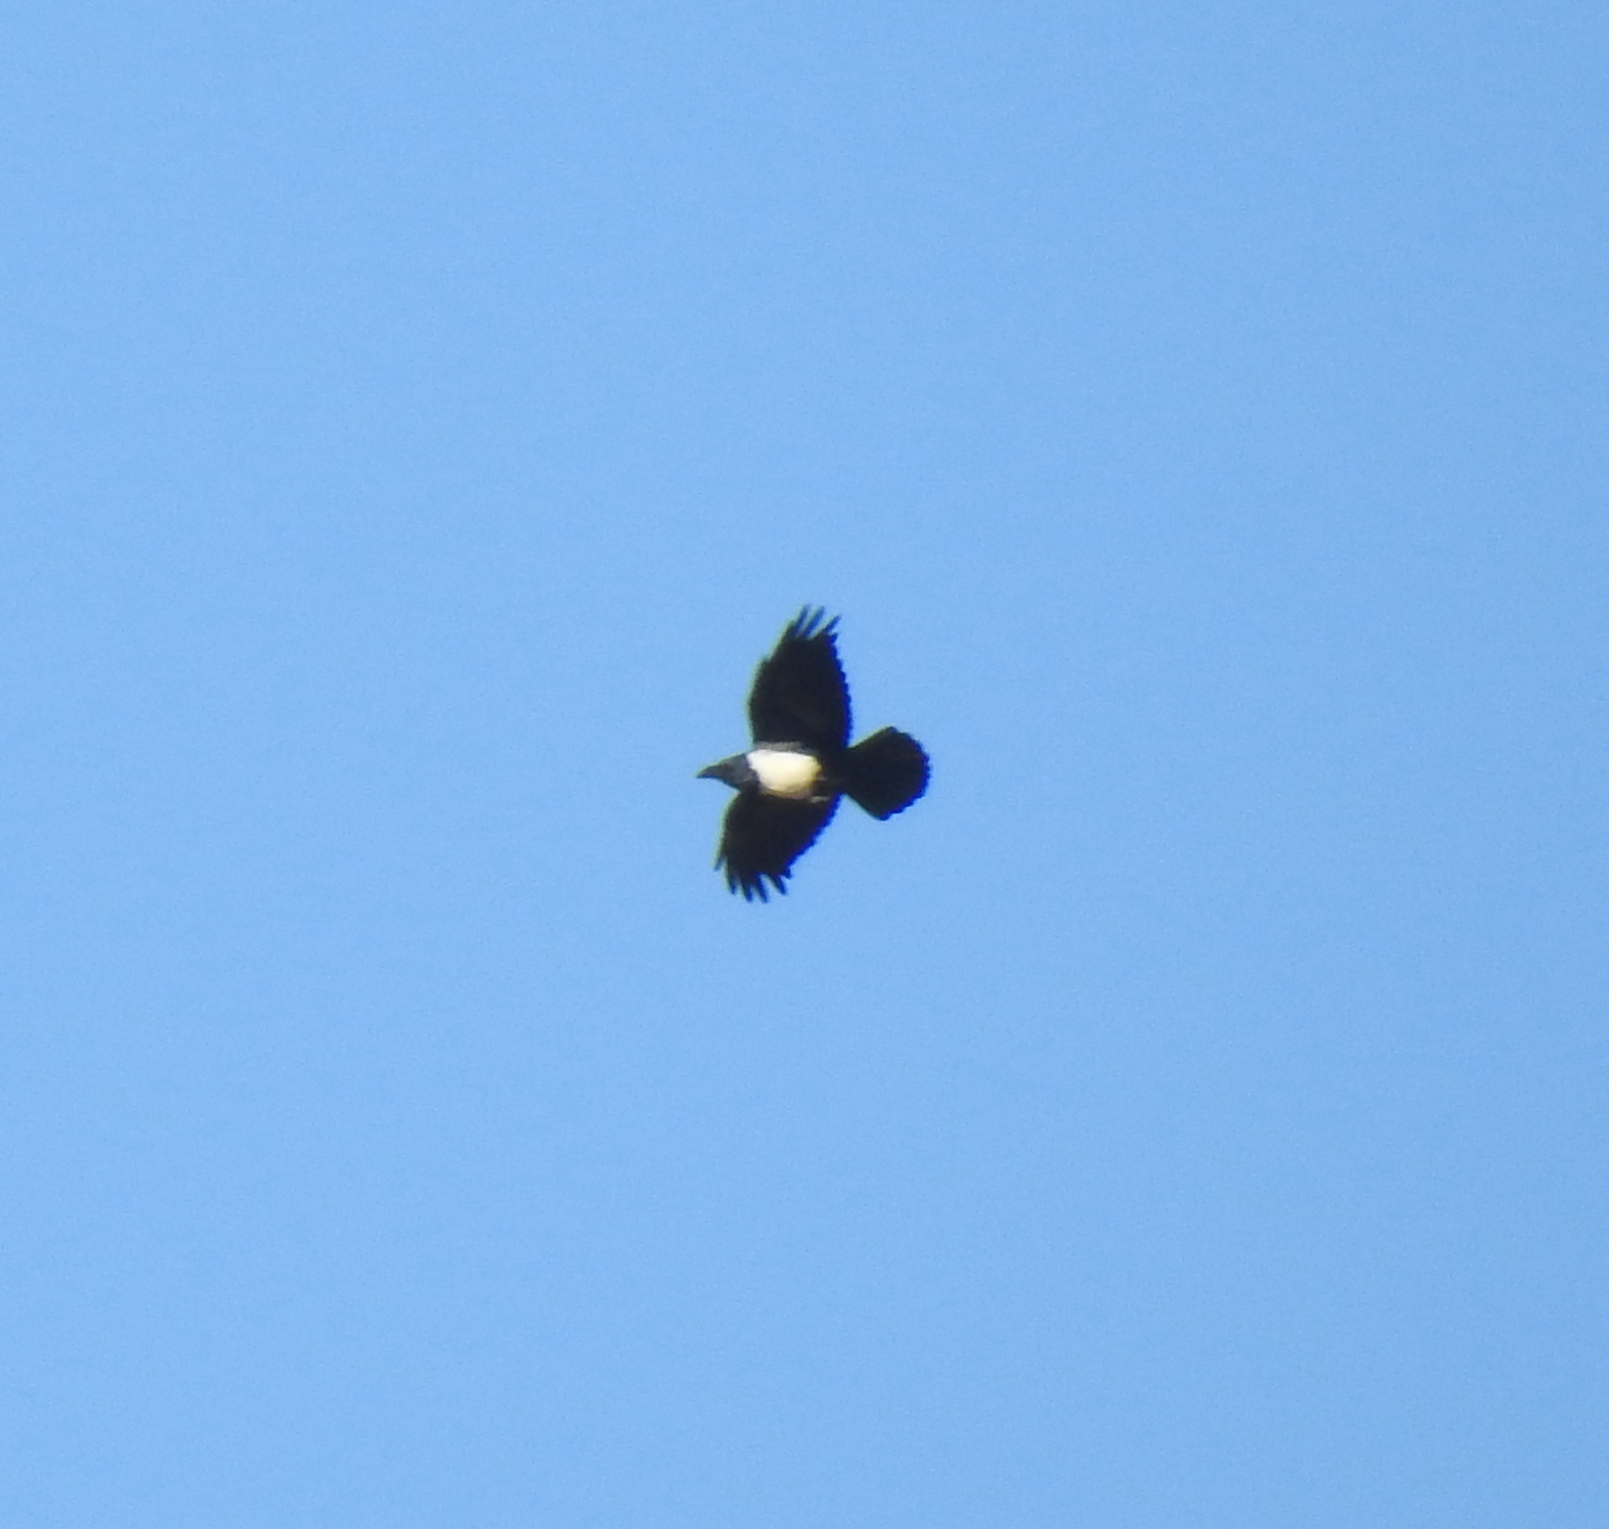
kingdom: Animalia
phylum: Chordata
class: Aves
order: Passeriformes
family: Corvidae
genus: Corvus
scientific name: Corvus albus
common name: Pied crow
